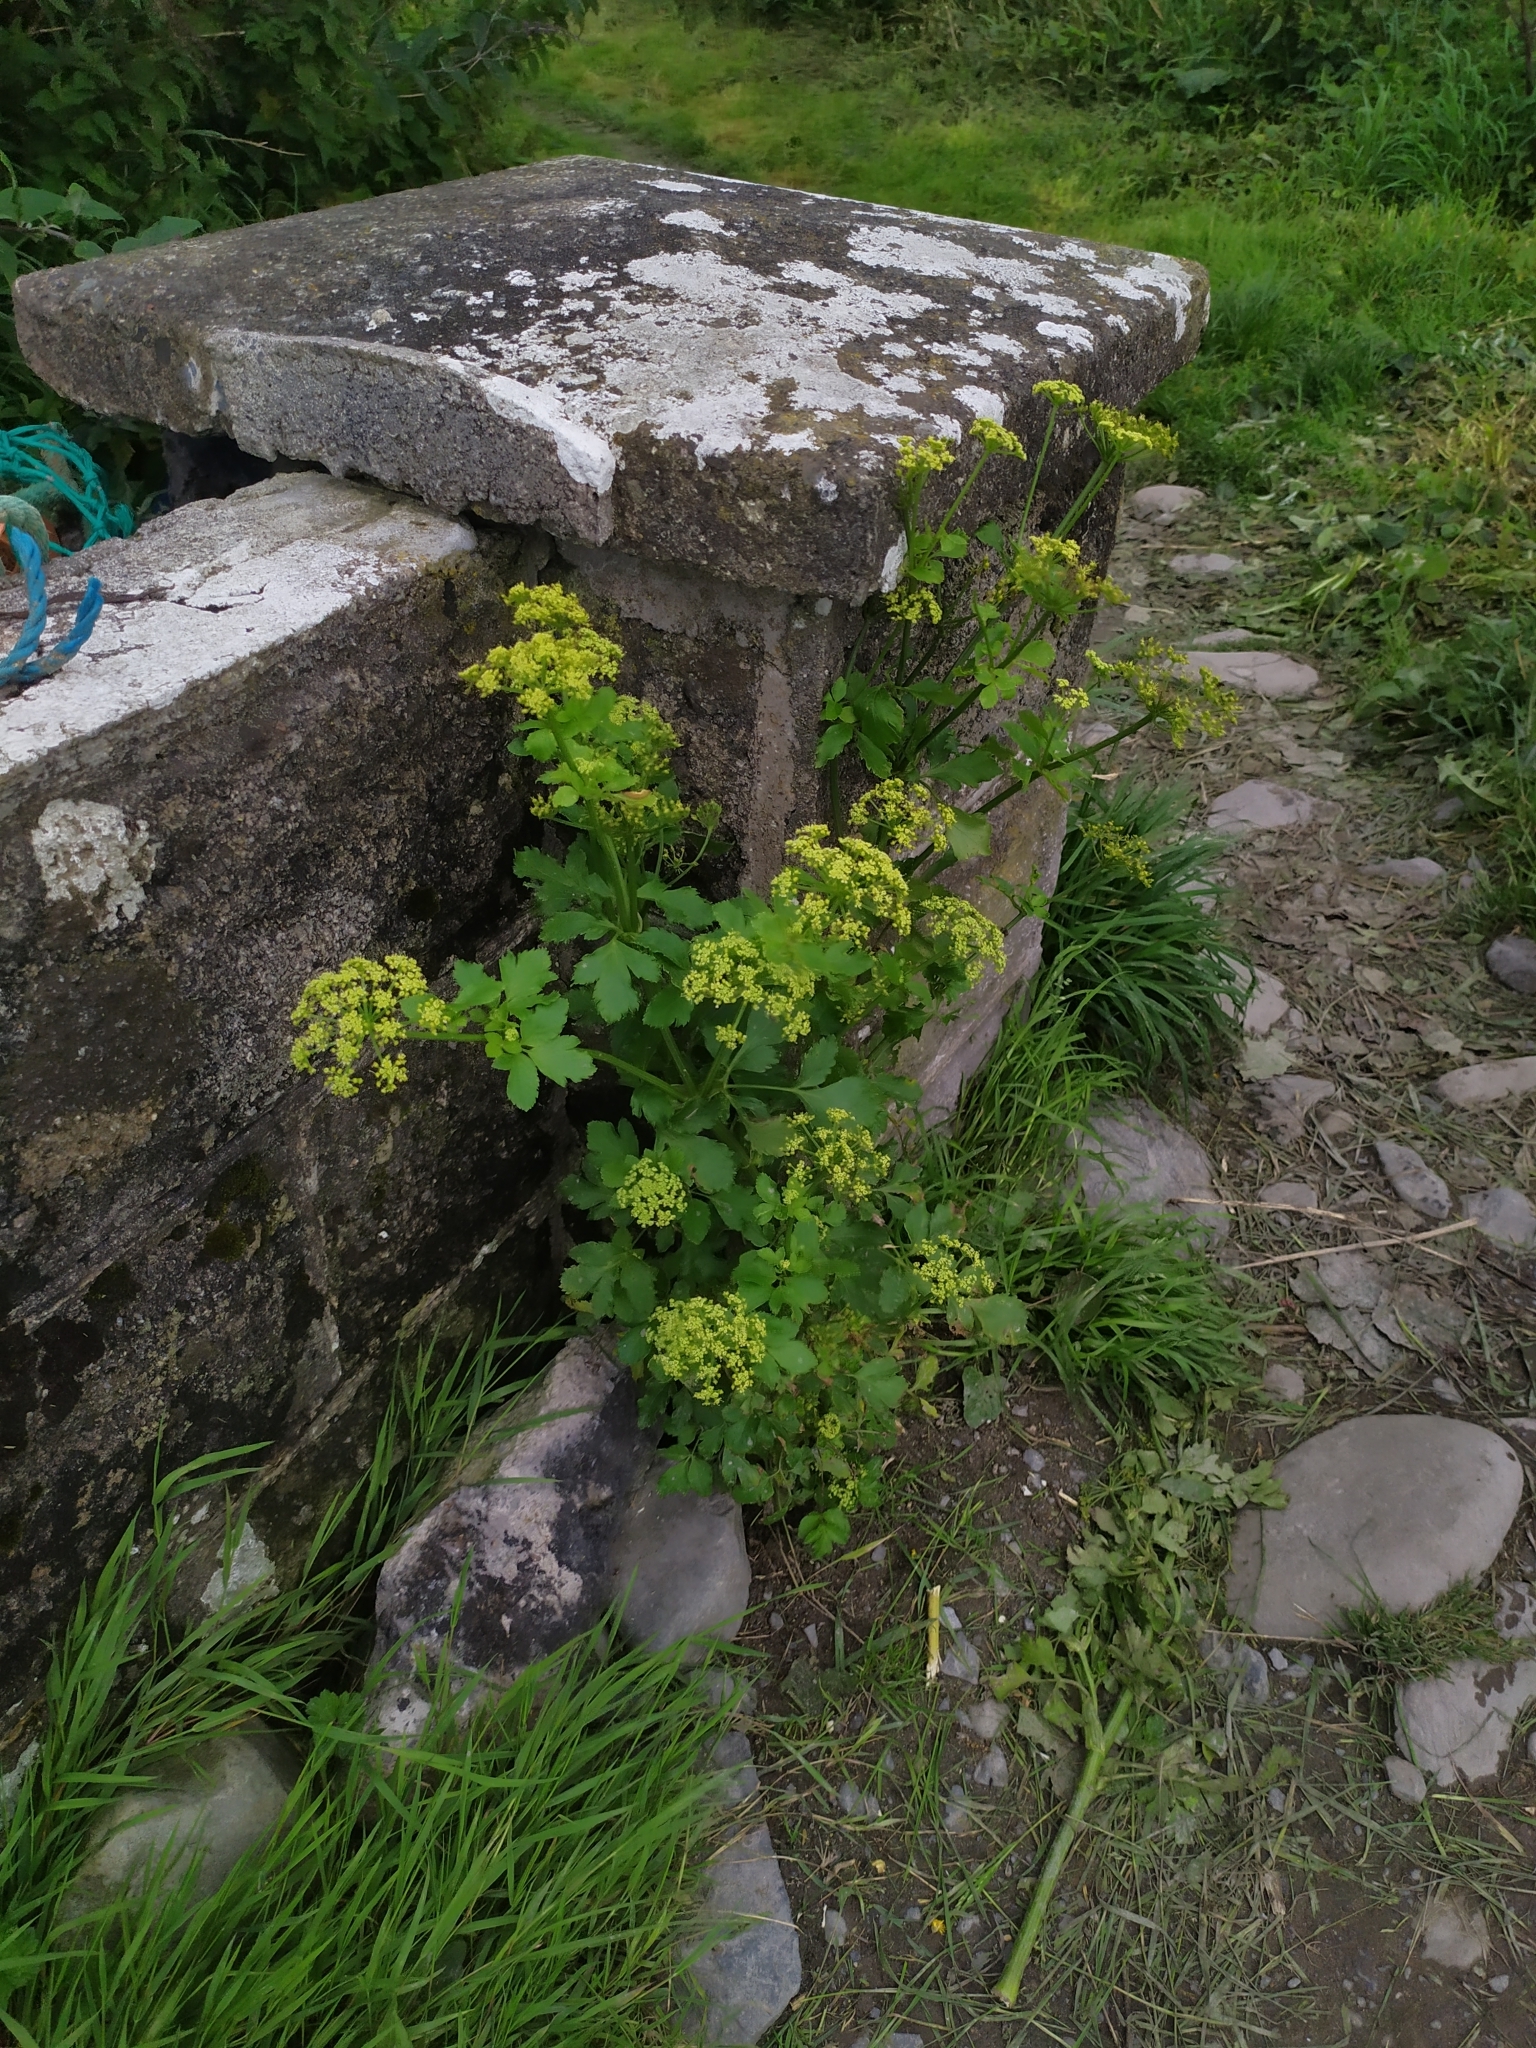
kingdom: Plantae
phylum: Tracheophyta
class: Magnoliopsida
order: Apiales
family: Apiaceae
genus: Smyrnium
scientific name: Smyrnium olusatrum
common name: Alexanders
